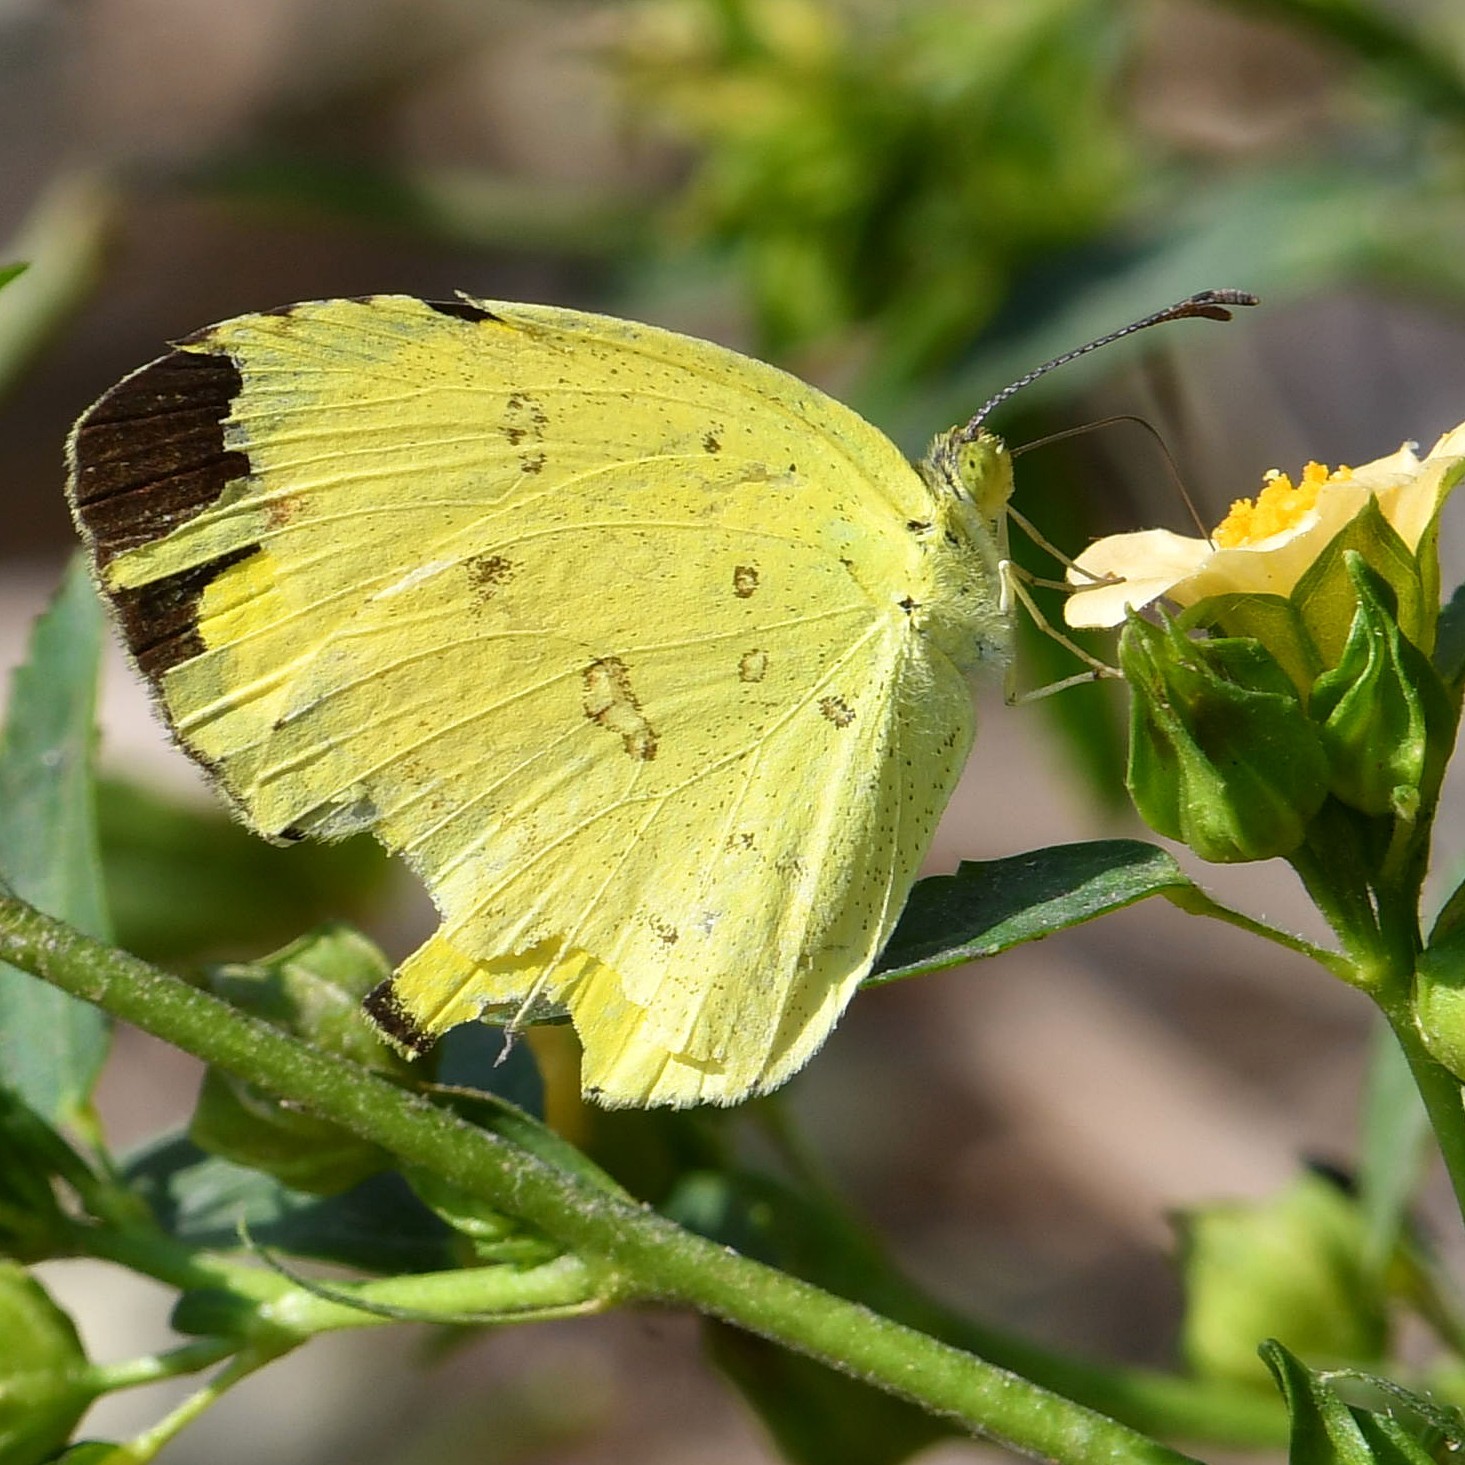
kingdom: Animalia
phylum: Arthropoda
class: Insecta
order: Lepidoptera
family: Pieridae
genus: Eurema
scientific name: Eurema hecabe
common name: Pale grass yellow
